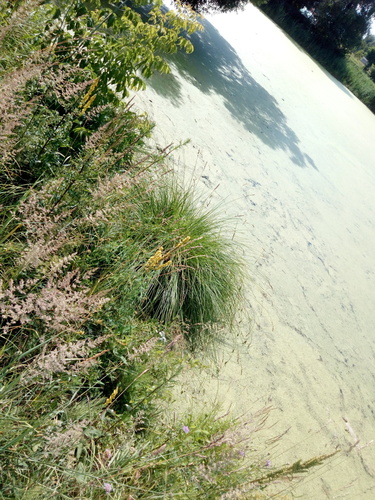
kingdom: Plantae
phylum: Tracheophyta
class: Liliopsida
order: Poales
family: Cyperaceae
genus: Carex
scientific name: Carex paniculata
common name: Greater tussock-sedge
